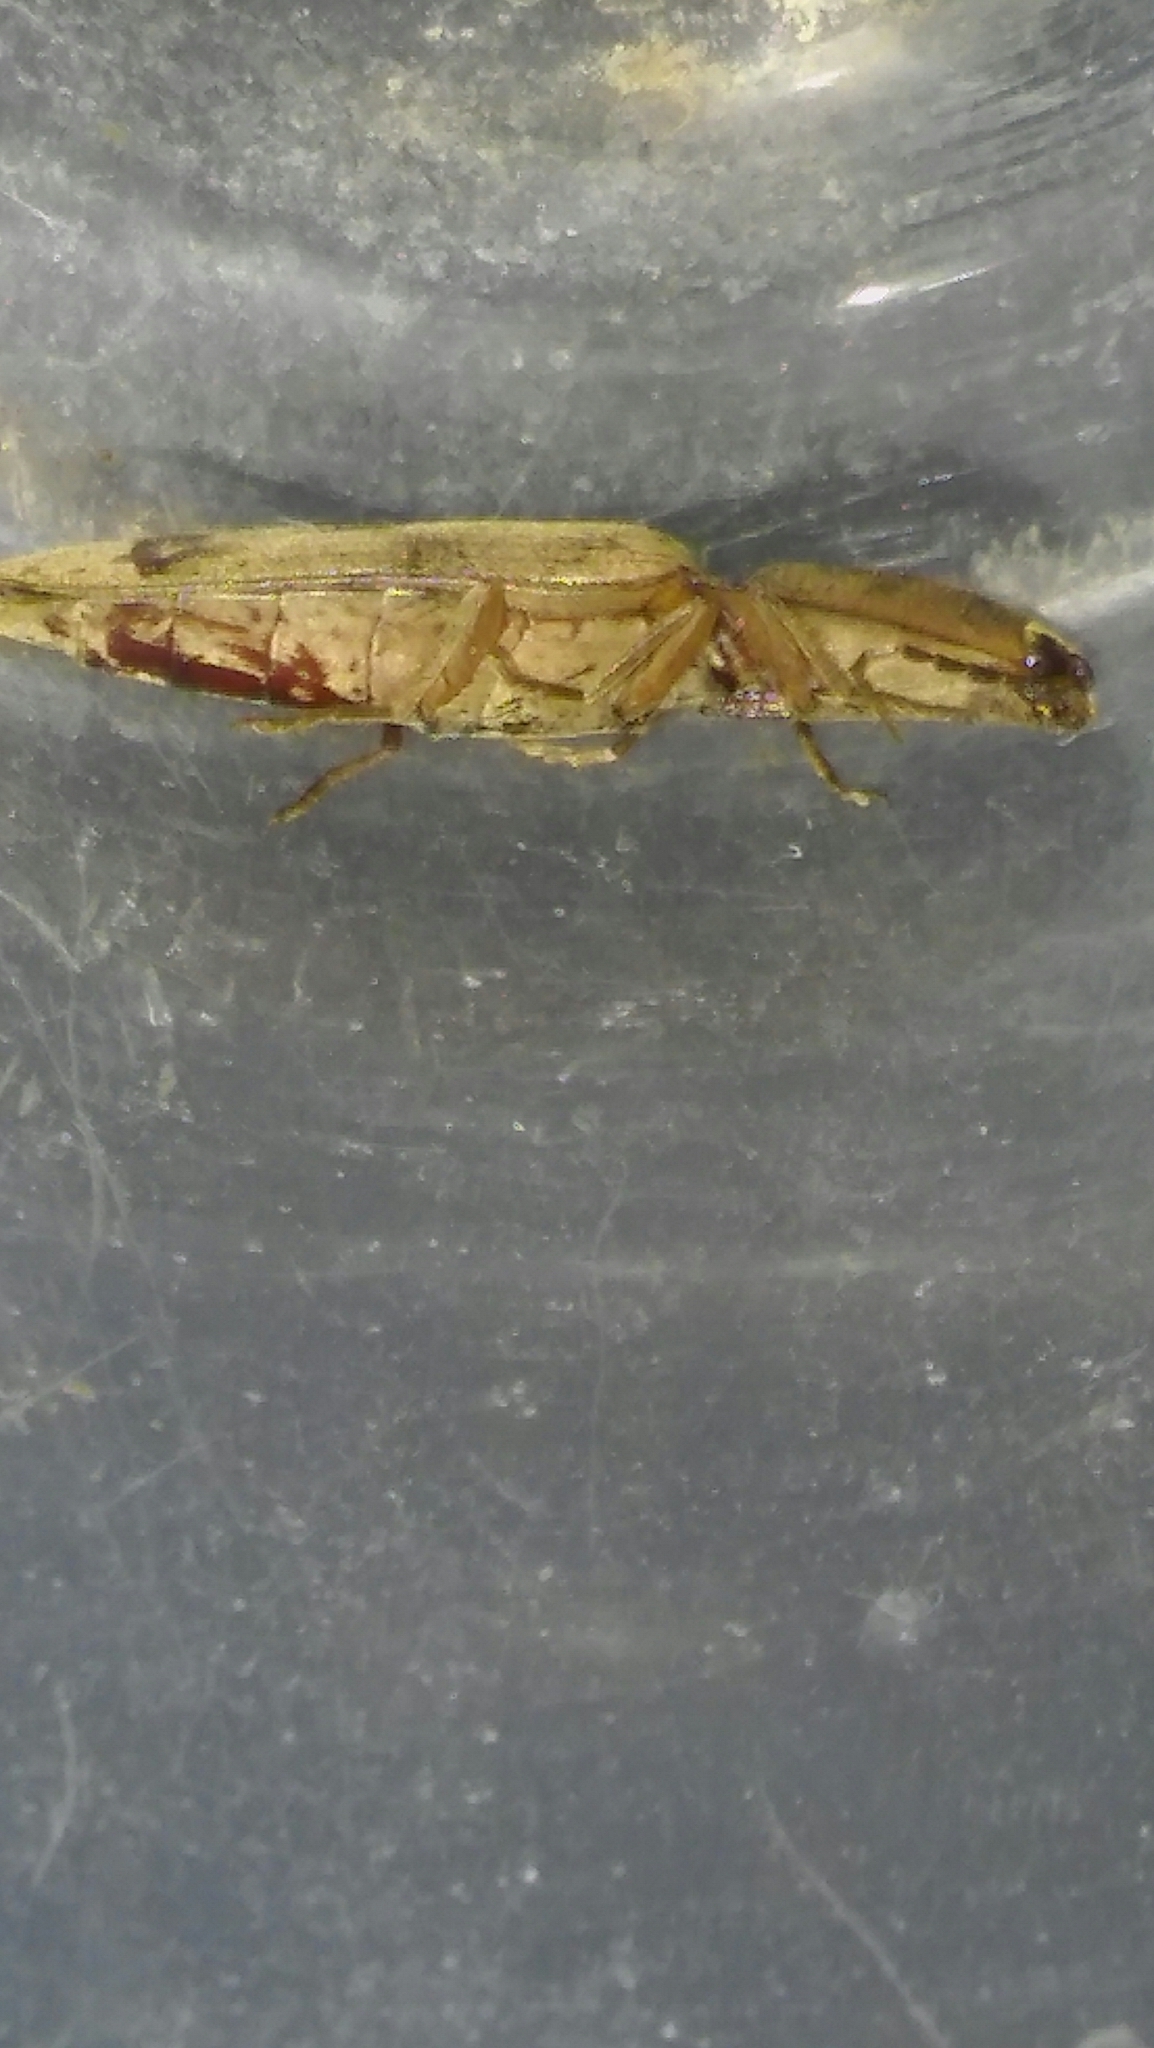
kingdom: Animalia
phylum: Arthropoda
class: Insecta
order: Coleoptera
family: Elateridae
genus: Monocrepidius
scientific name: Monocrepidius
